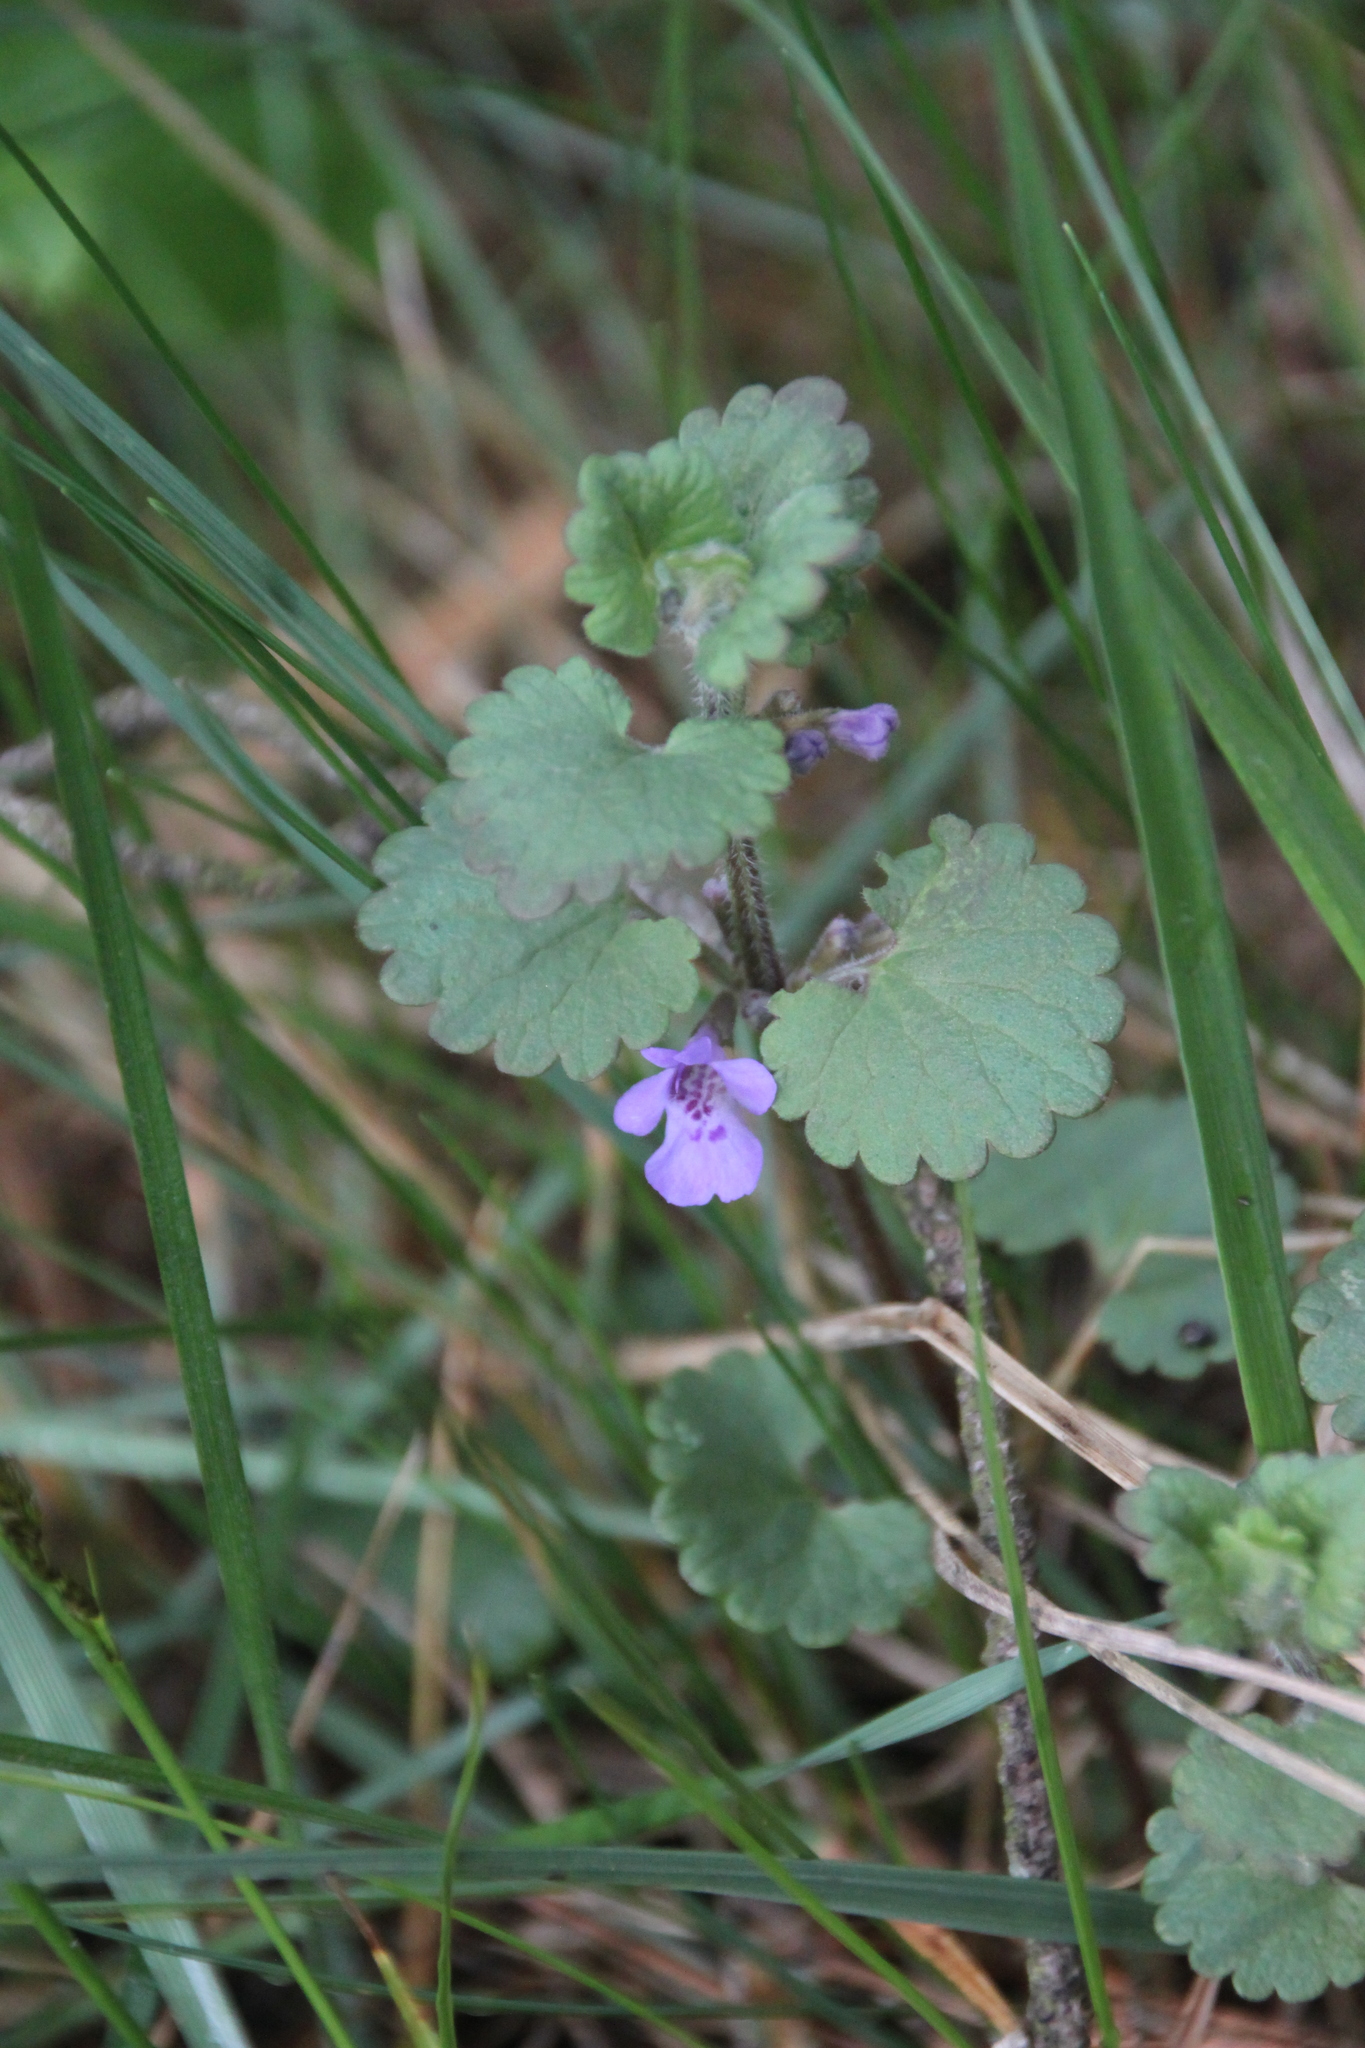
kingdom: Plantae
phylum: Tracheophyta
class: Magnoliopsida
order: Lamiales
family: Lamiaceae
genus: Glechoma
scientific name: Glechoma hederacea
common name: Ground ivy
